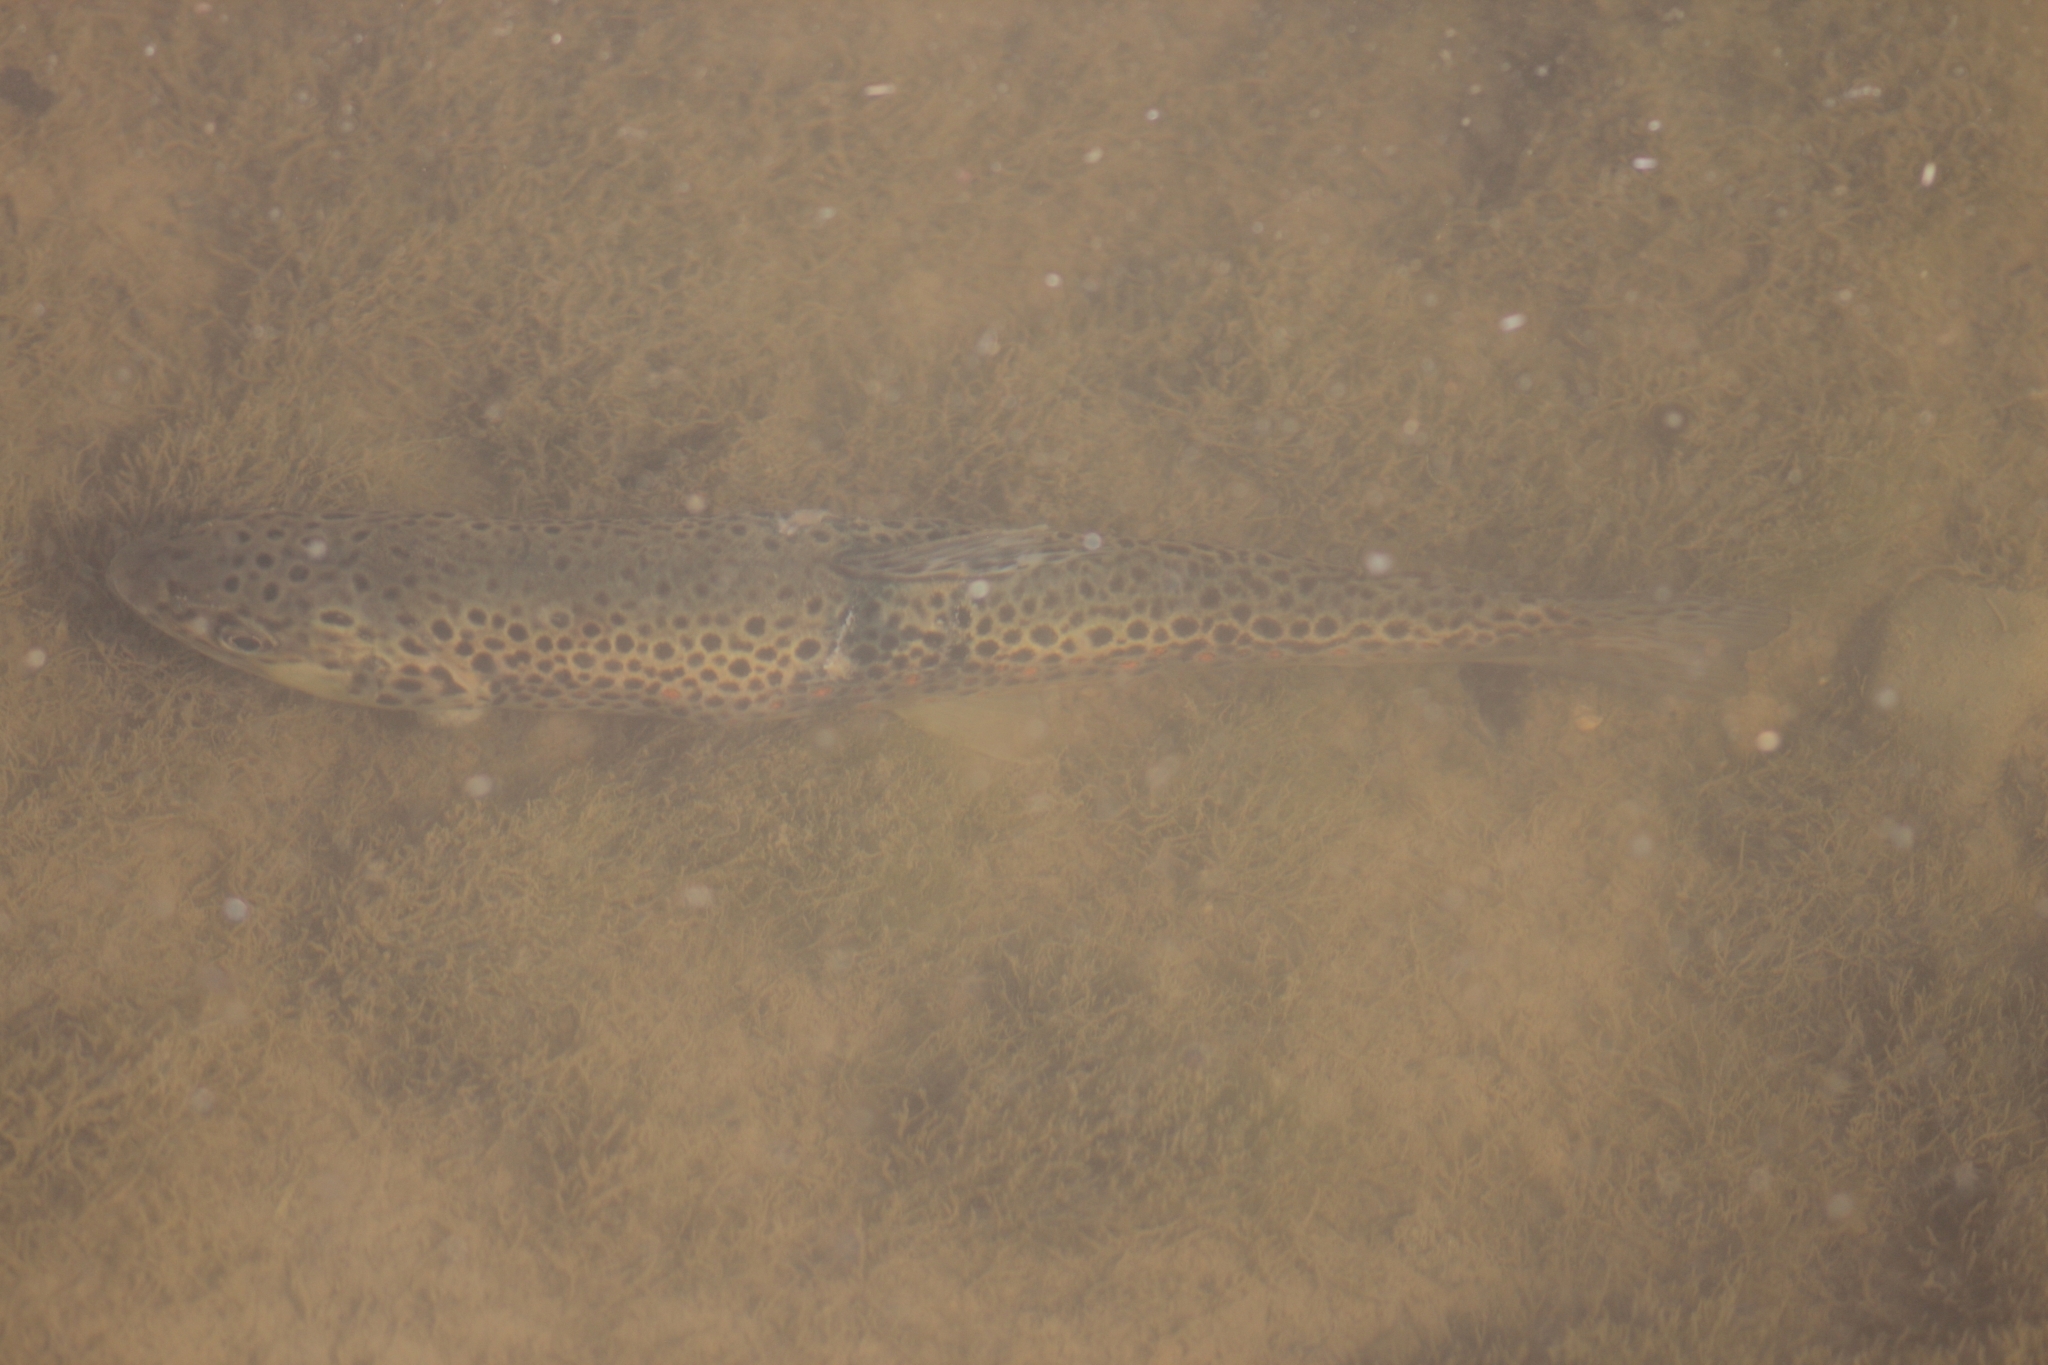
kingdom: Animalia
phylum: Chordata
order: Salmoniformes
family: Salmonidae
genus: Salmo
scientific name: Salmo trutta
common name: Brown trout
